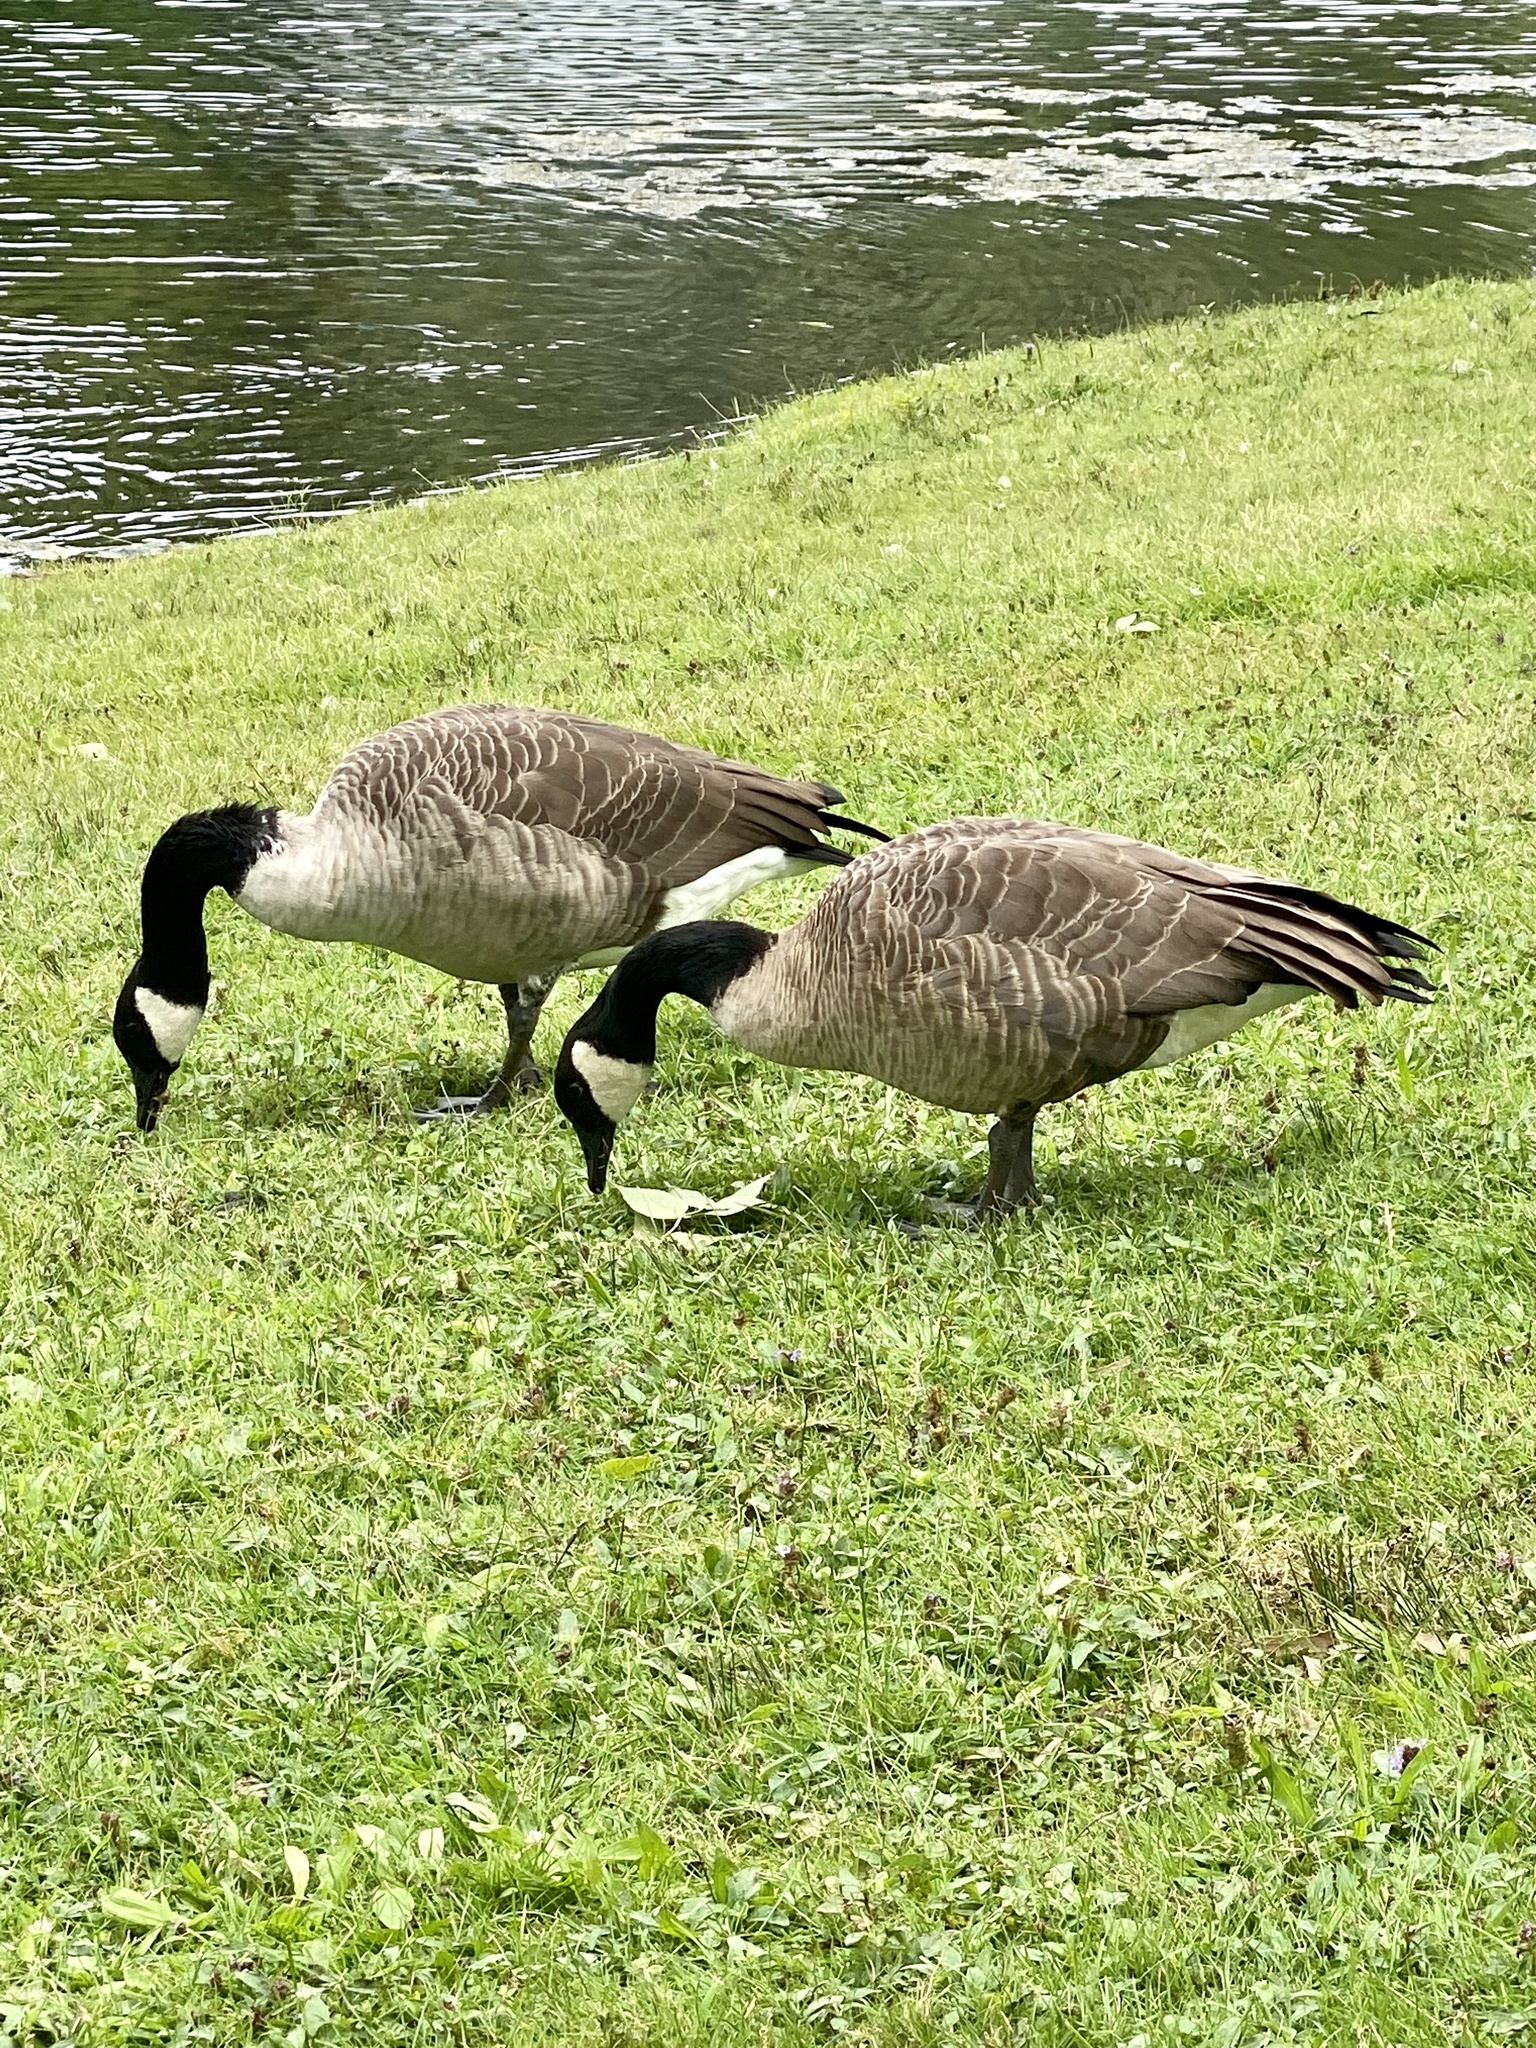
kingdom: Animalia
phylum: Chordata
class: Aves
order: Anseriformes
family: Anatidae
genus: Branta
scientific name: Branta canadensis
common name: Canada goose
